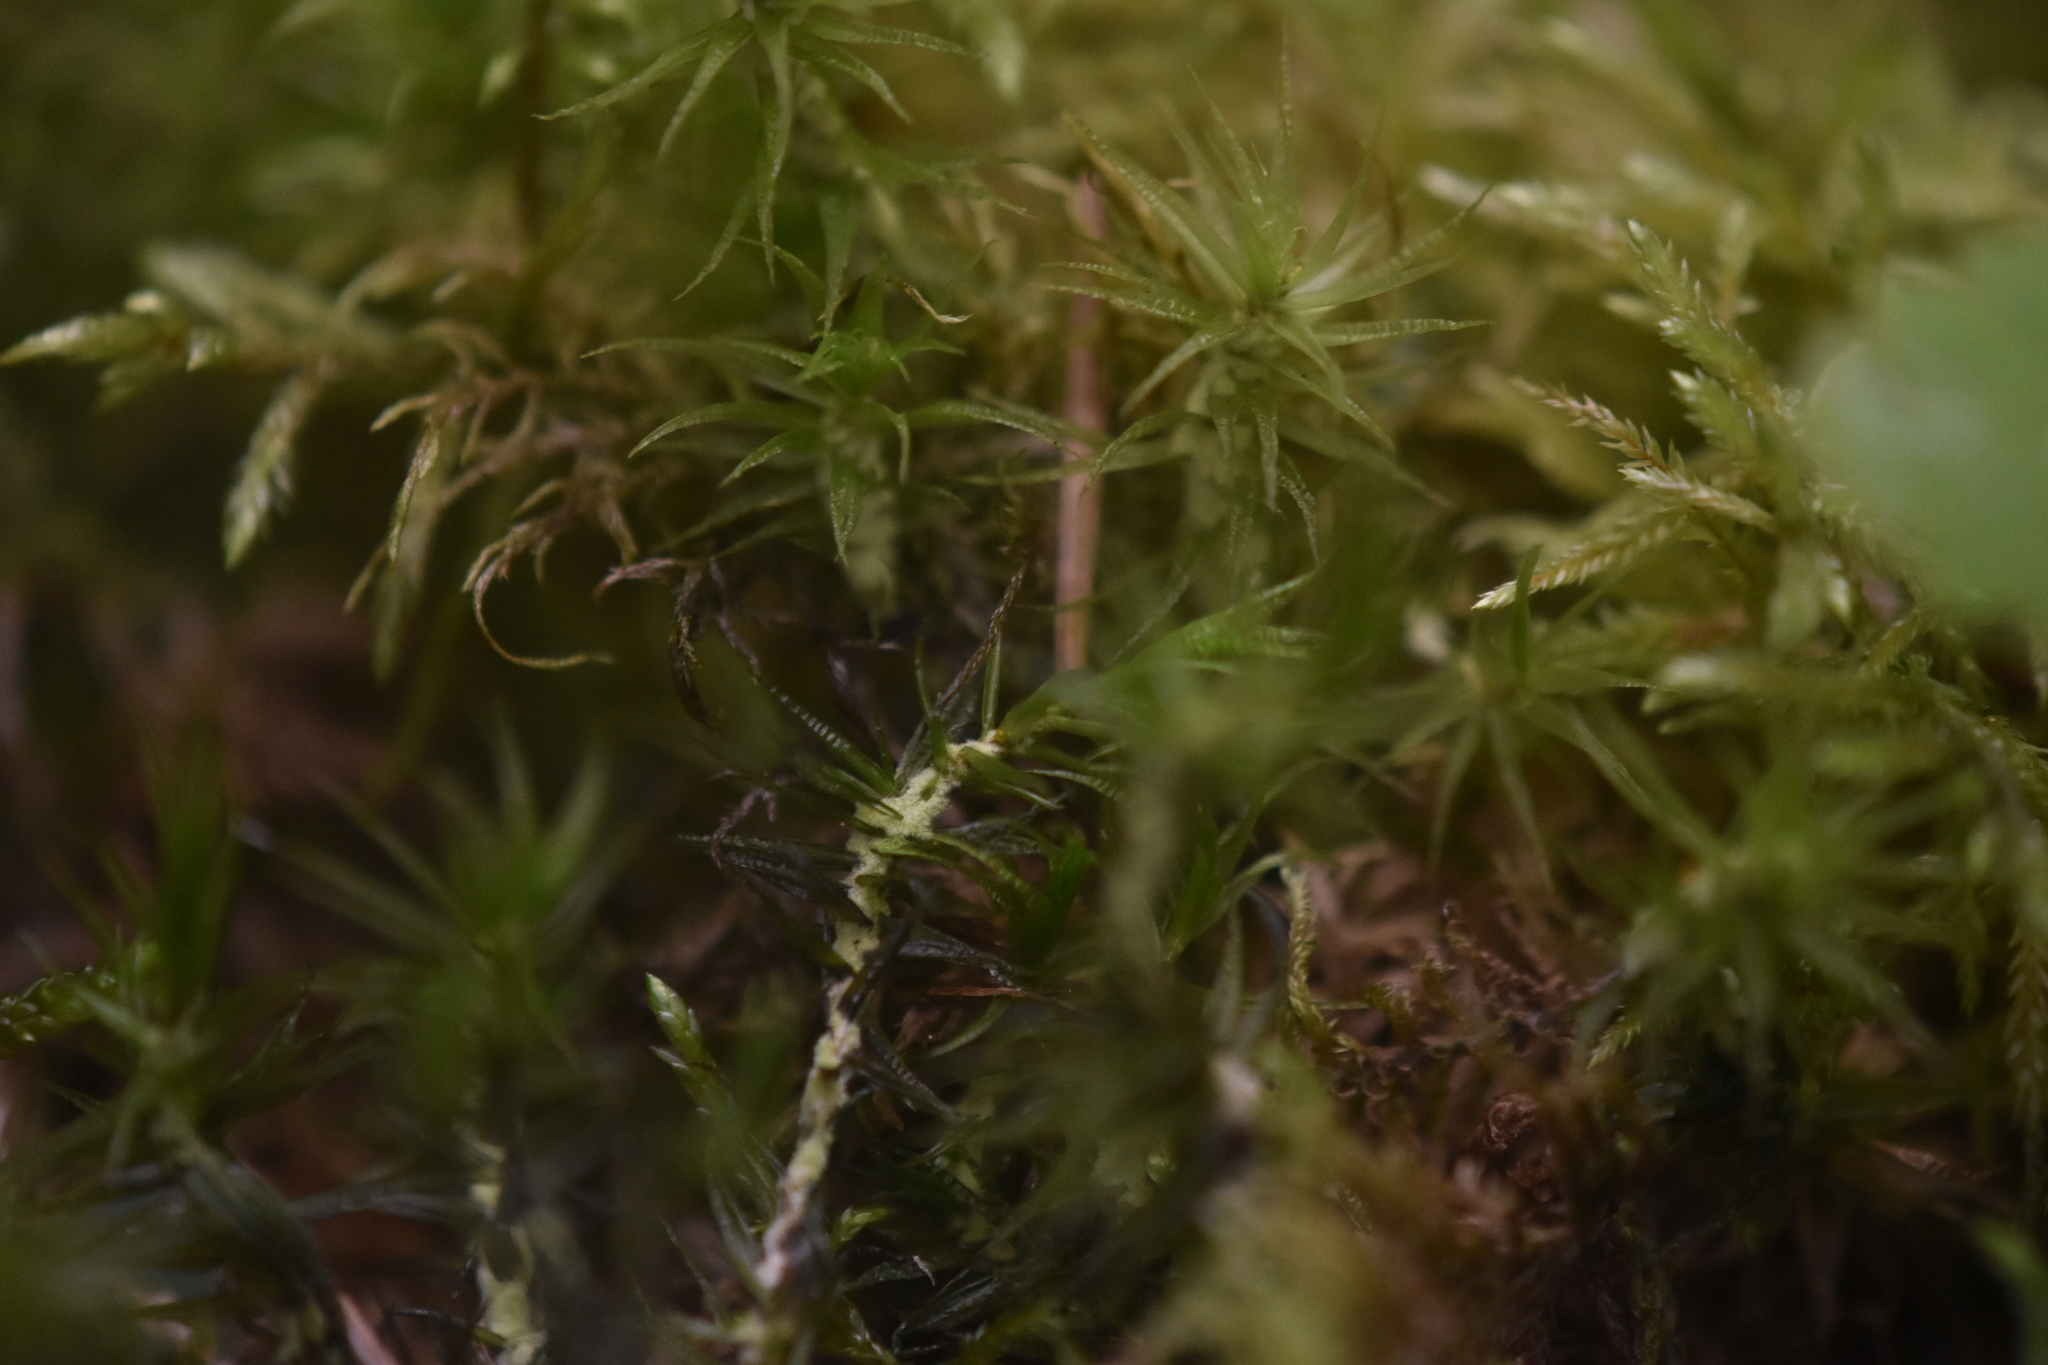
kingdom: Plantae
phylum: Bryophyta
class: Bryopsida
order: Dicranales
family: Dicranaceae
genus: Dicranum
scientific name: Dicranum polysetum
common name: Rugose fork-moss
